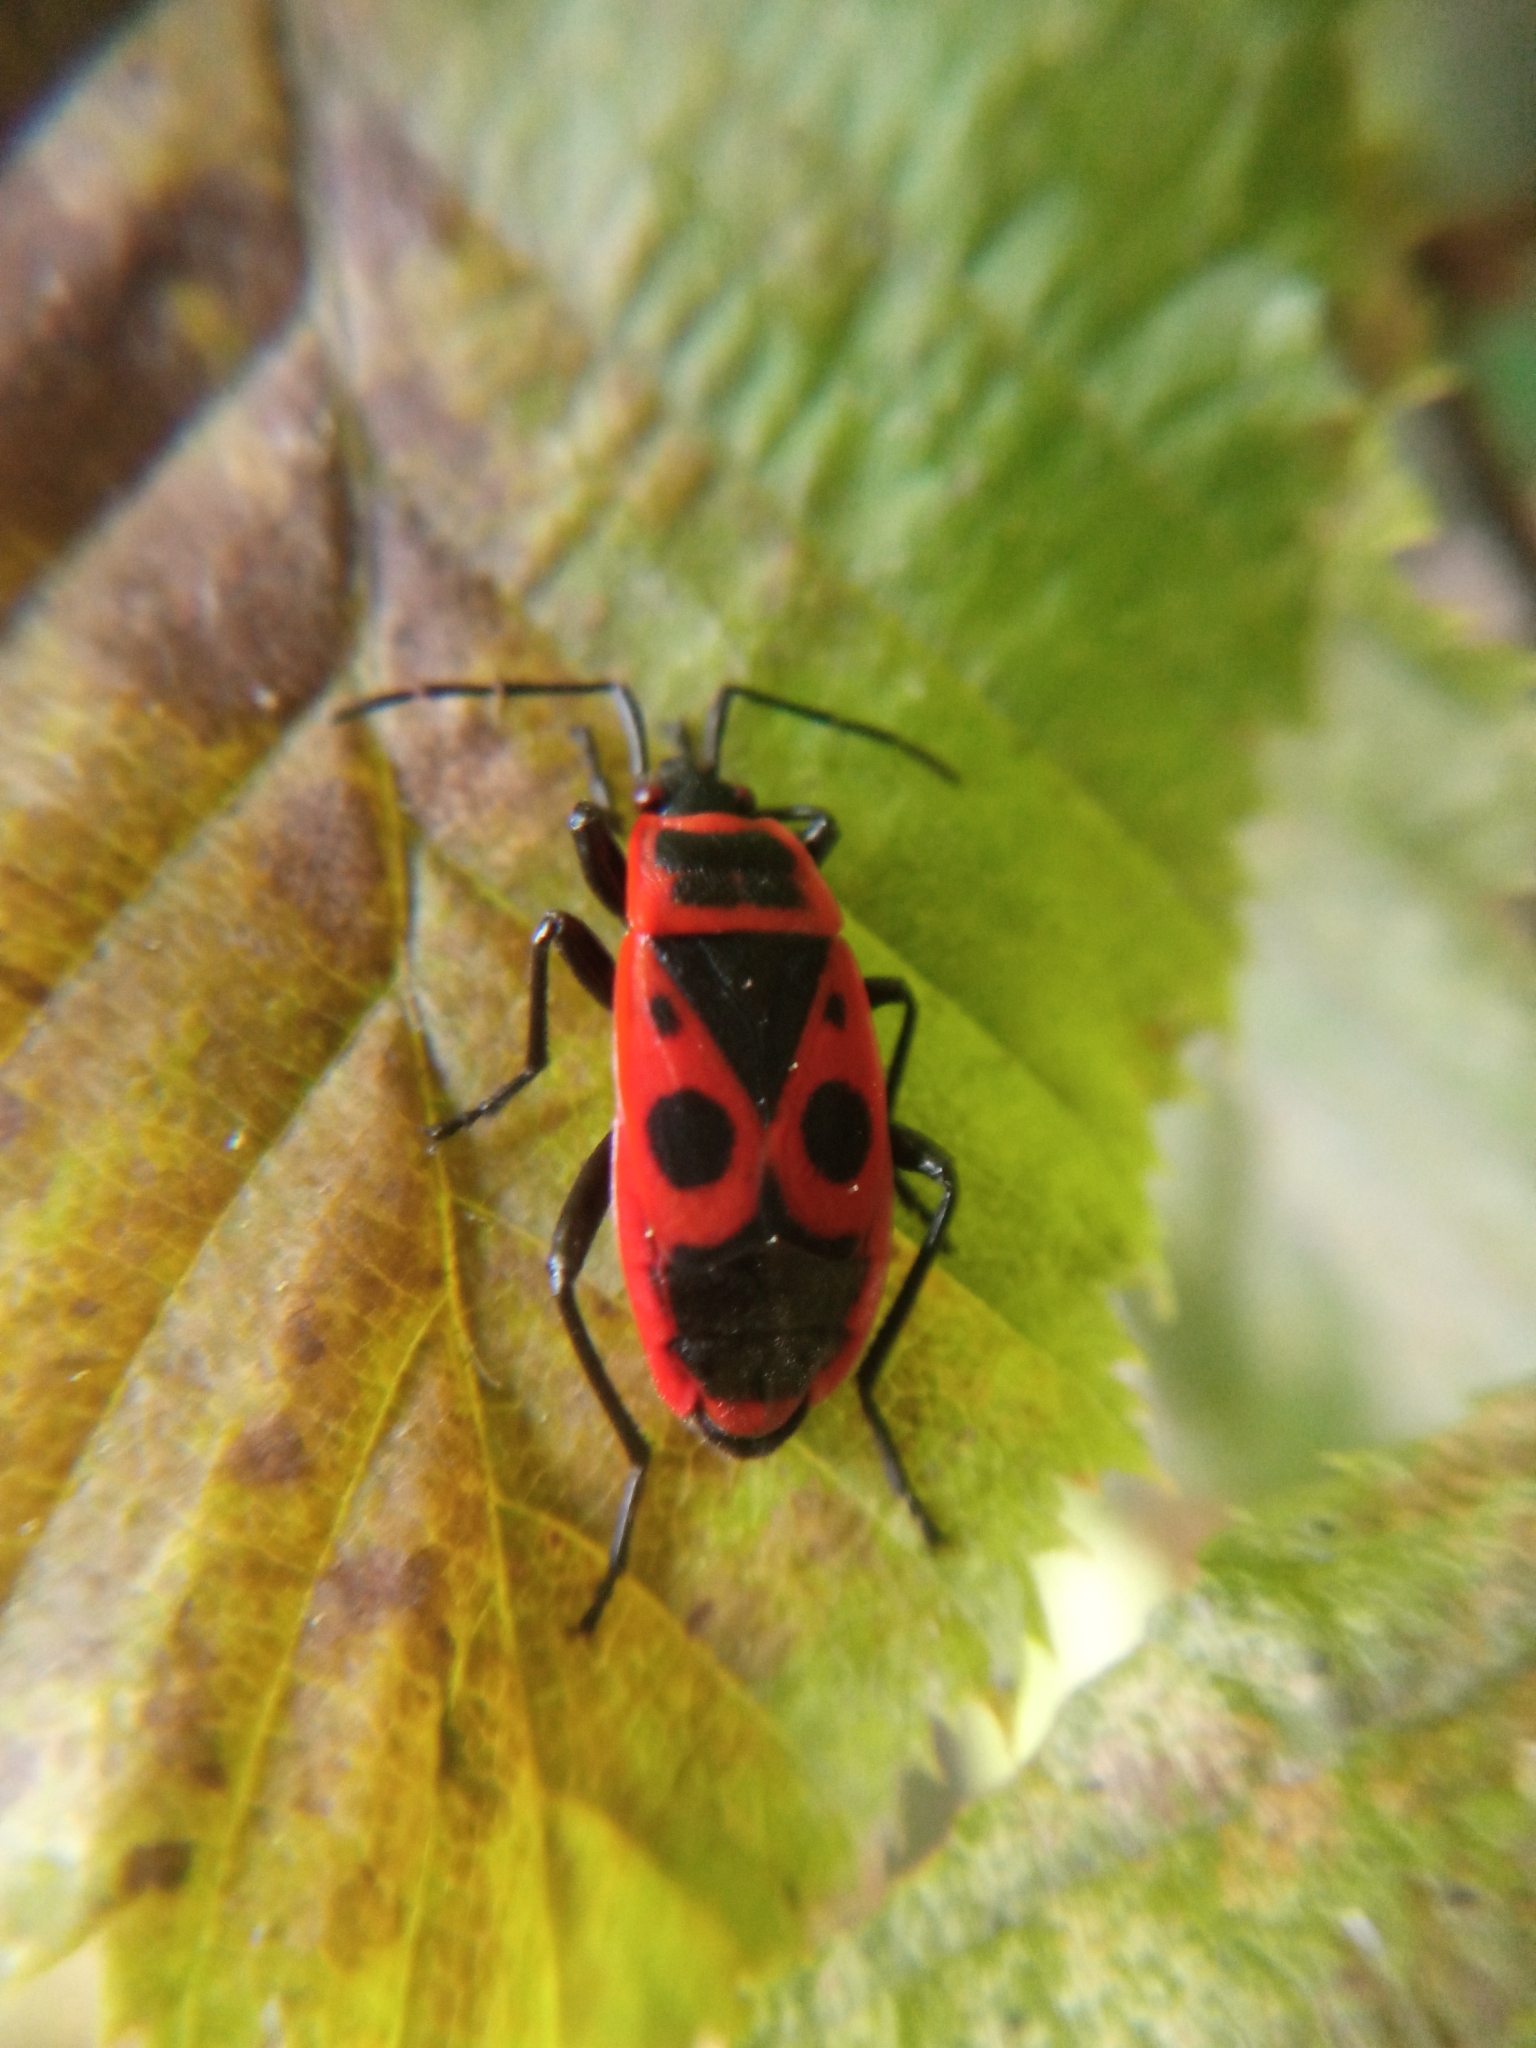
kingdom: Animalia
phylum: Arthropoda
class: Insecta
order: Hemiptera
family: Pyrrhocoridae
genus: Pyrrhocoris
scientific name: Pyrrhocoris apterus
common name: Firebug
